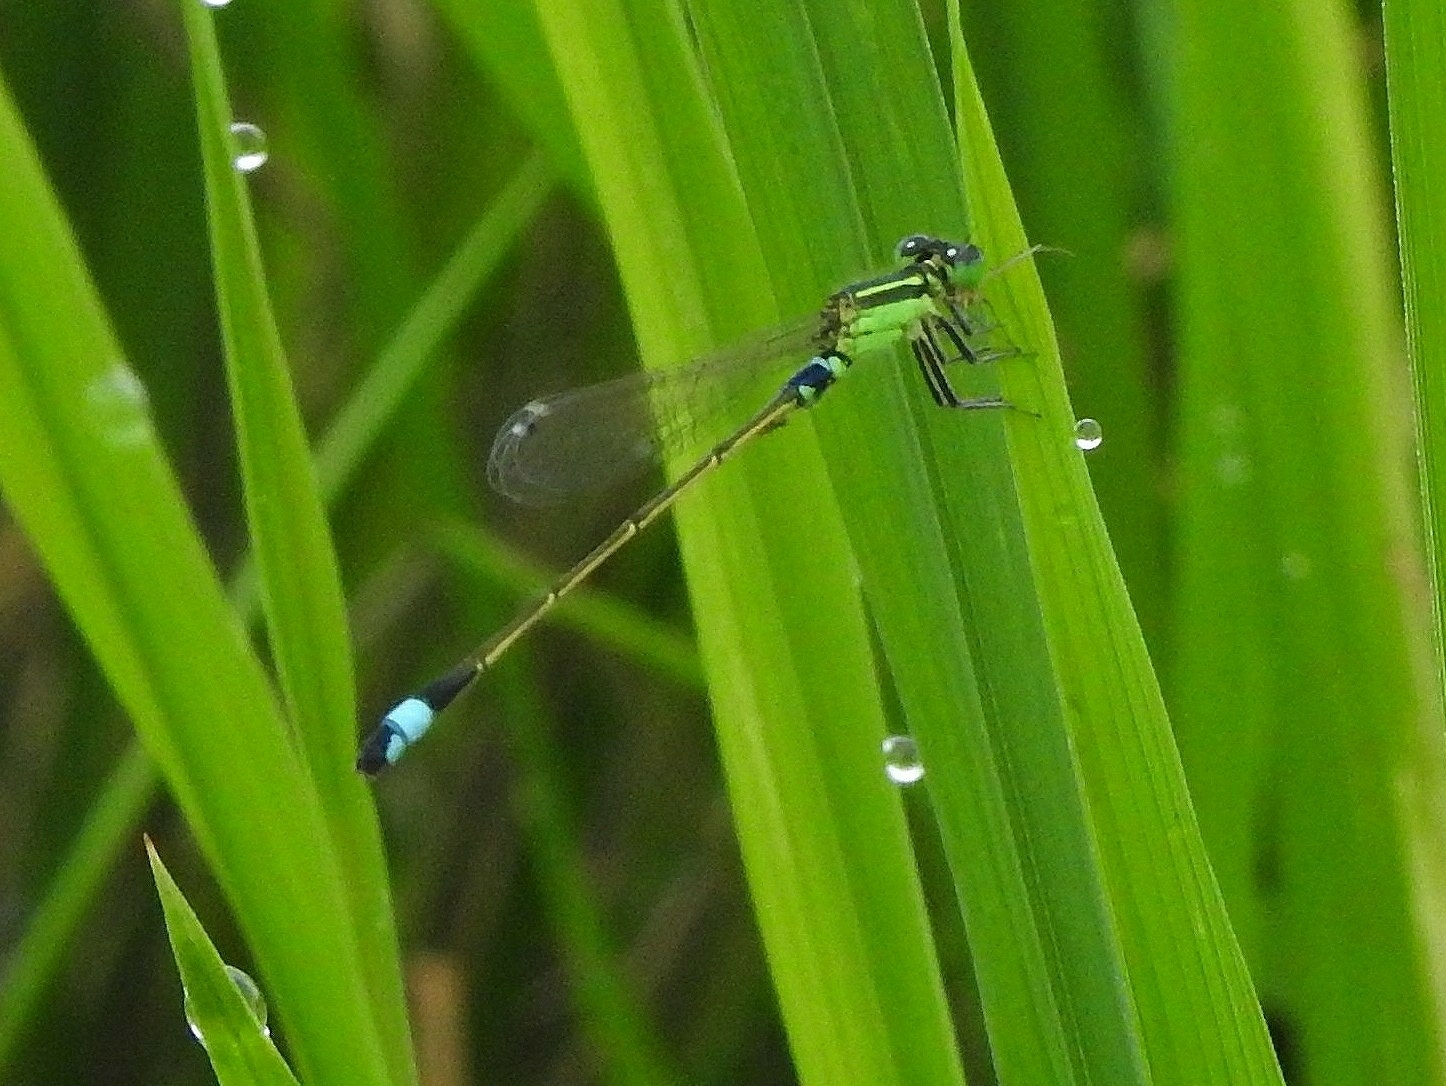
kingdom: Animalia
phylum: Arthropoda
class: Insecta
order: Odonata
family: Coenagrionidae
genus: Ischnura
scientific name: Ischnura senegalensis
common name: Tropical bluetail
